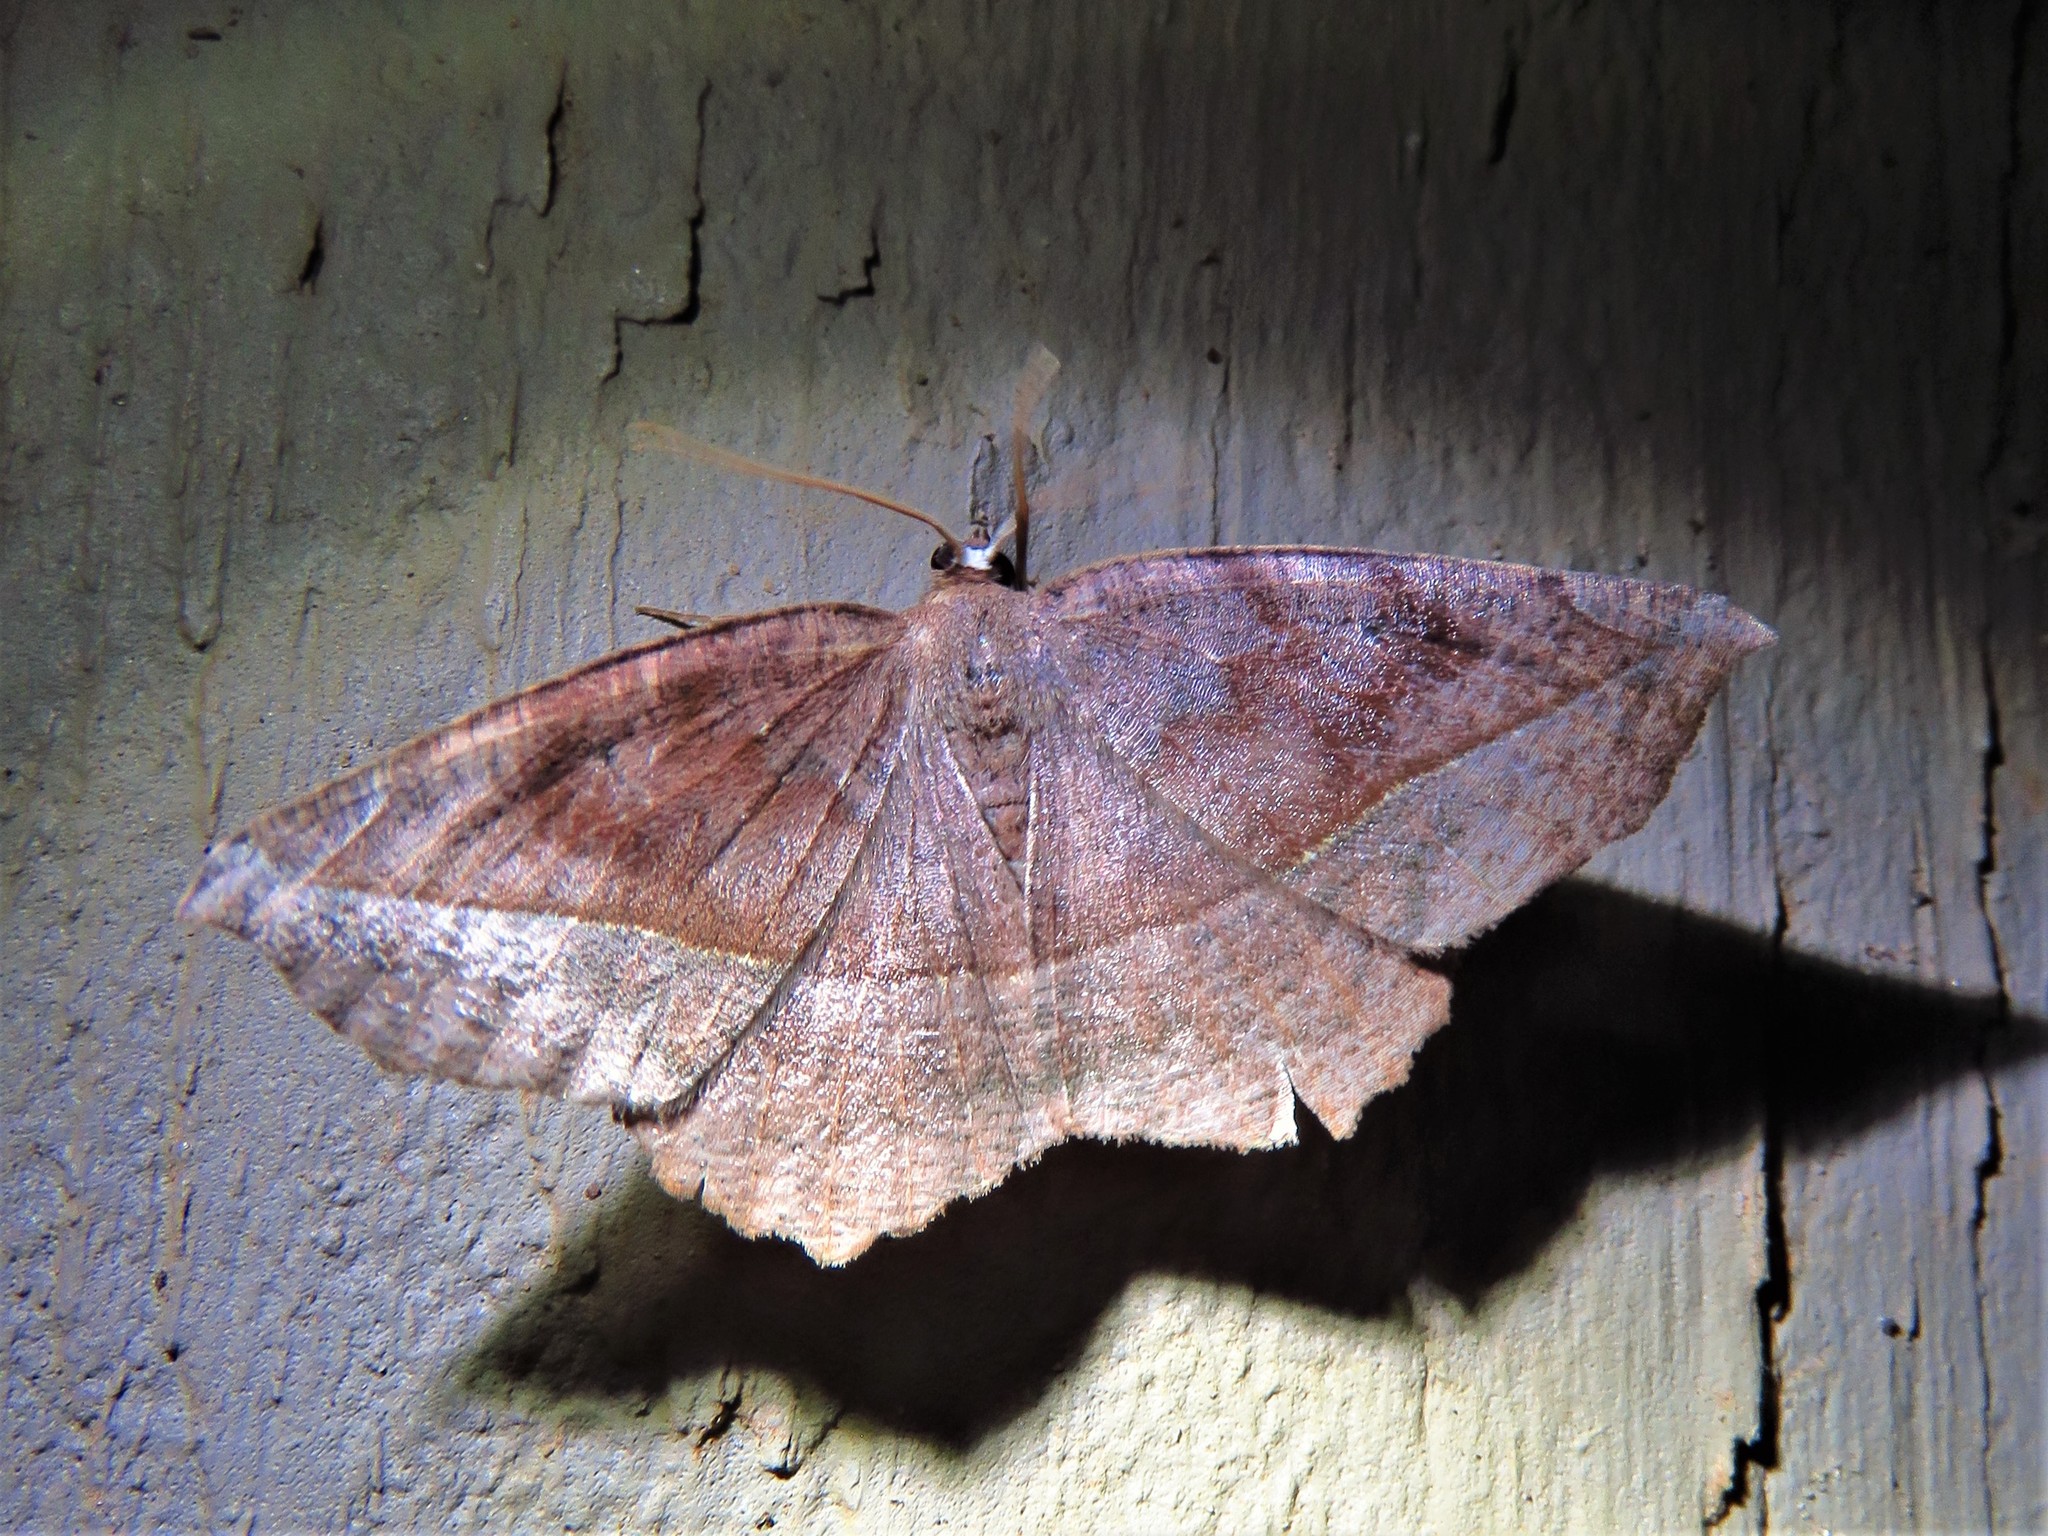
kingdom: Animalia
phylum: Arthropoda
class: Insecta
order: Lepidoptera
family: Geometridae
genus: Eutrapela
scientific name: Eutrapela clemataria
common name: Curved-toothed geometer
